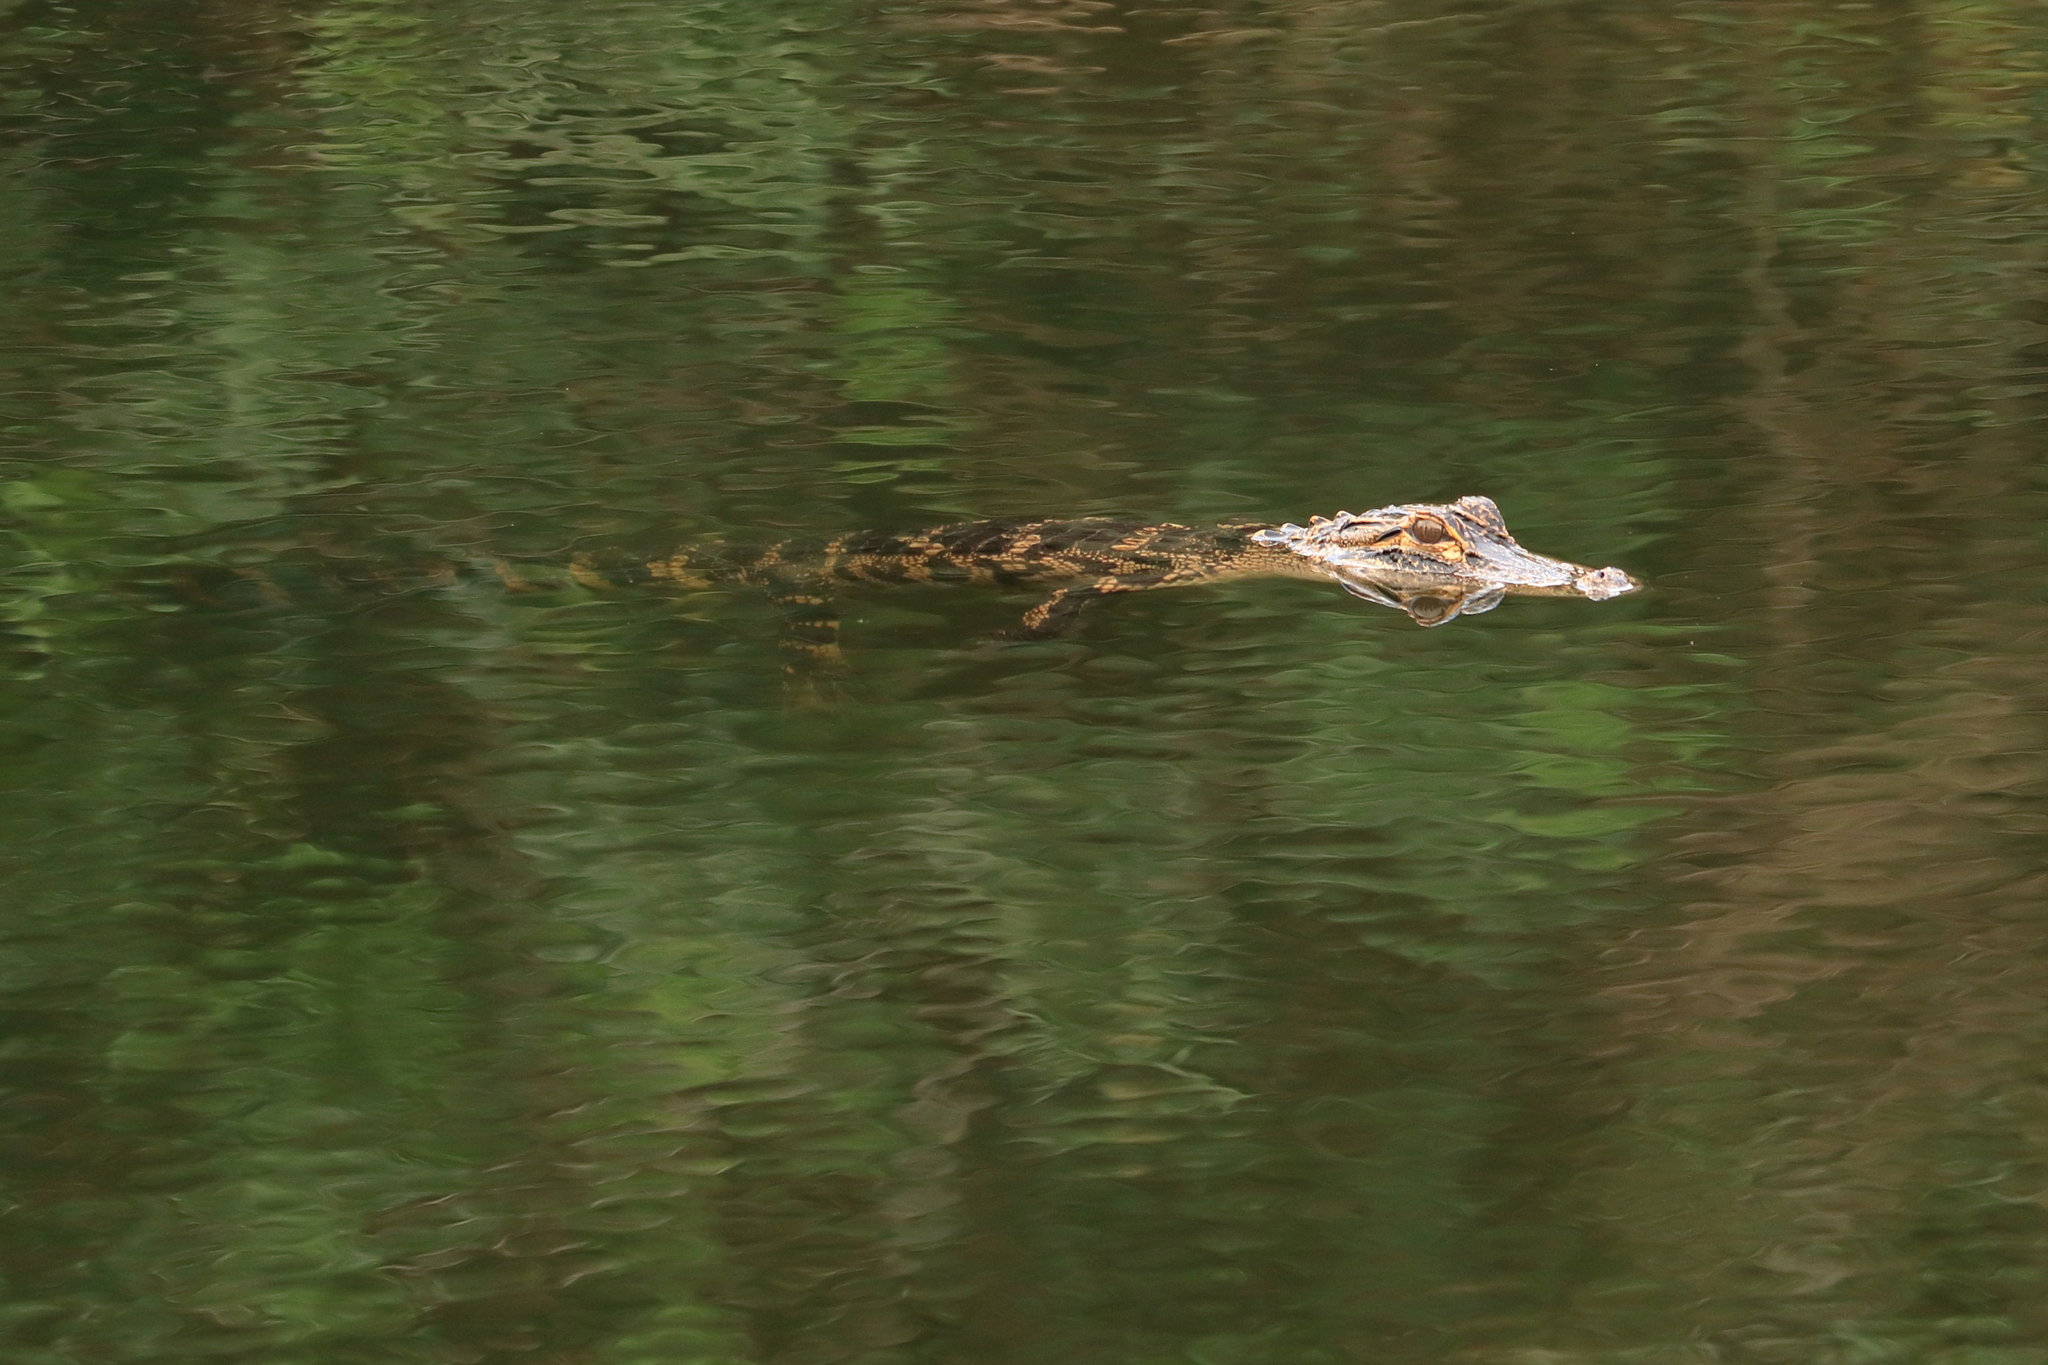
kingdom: Animalia
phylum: Chordata
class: Crocodylia
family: Alligatoridae
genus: Alligator
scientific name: Alligator mississippiensis
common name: American alligator
